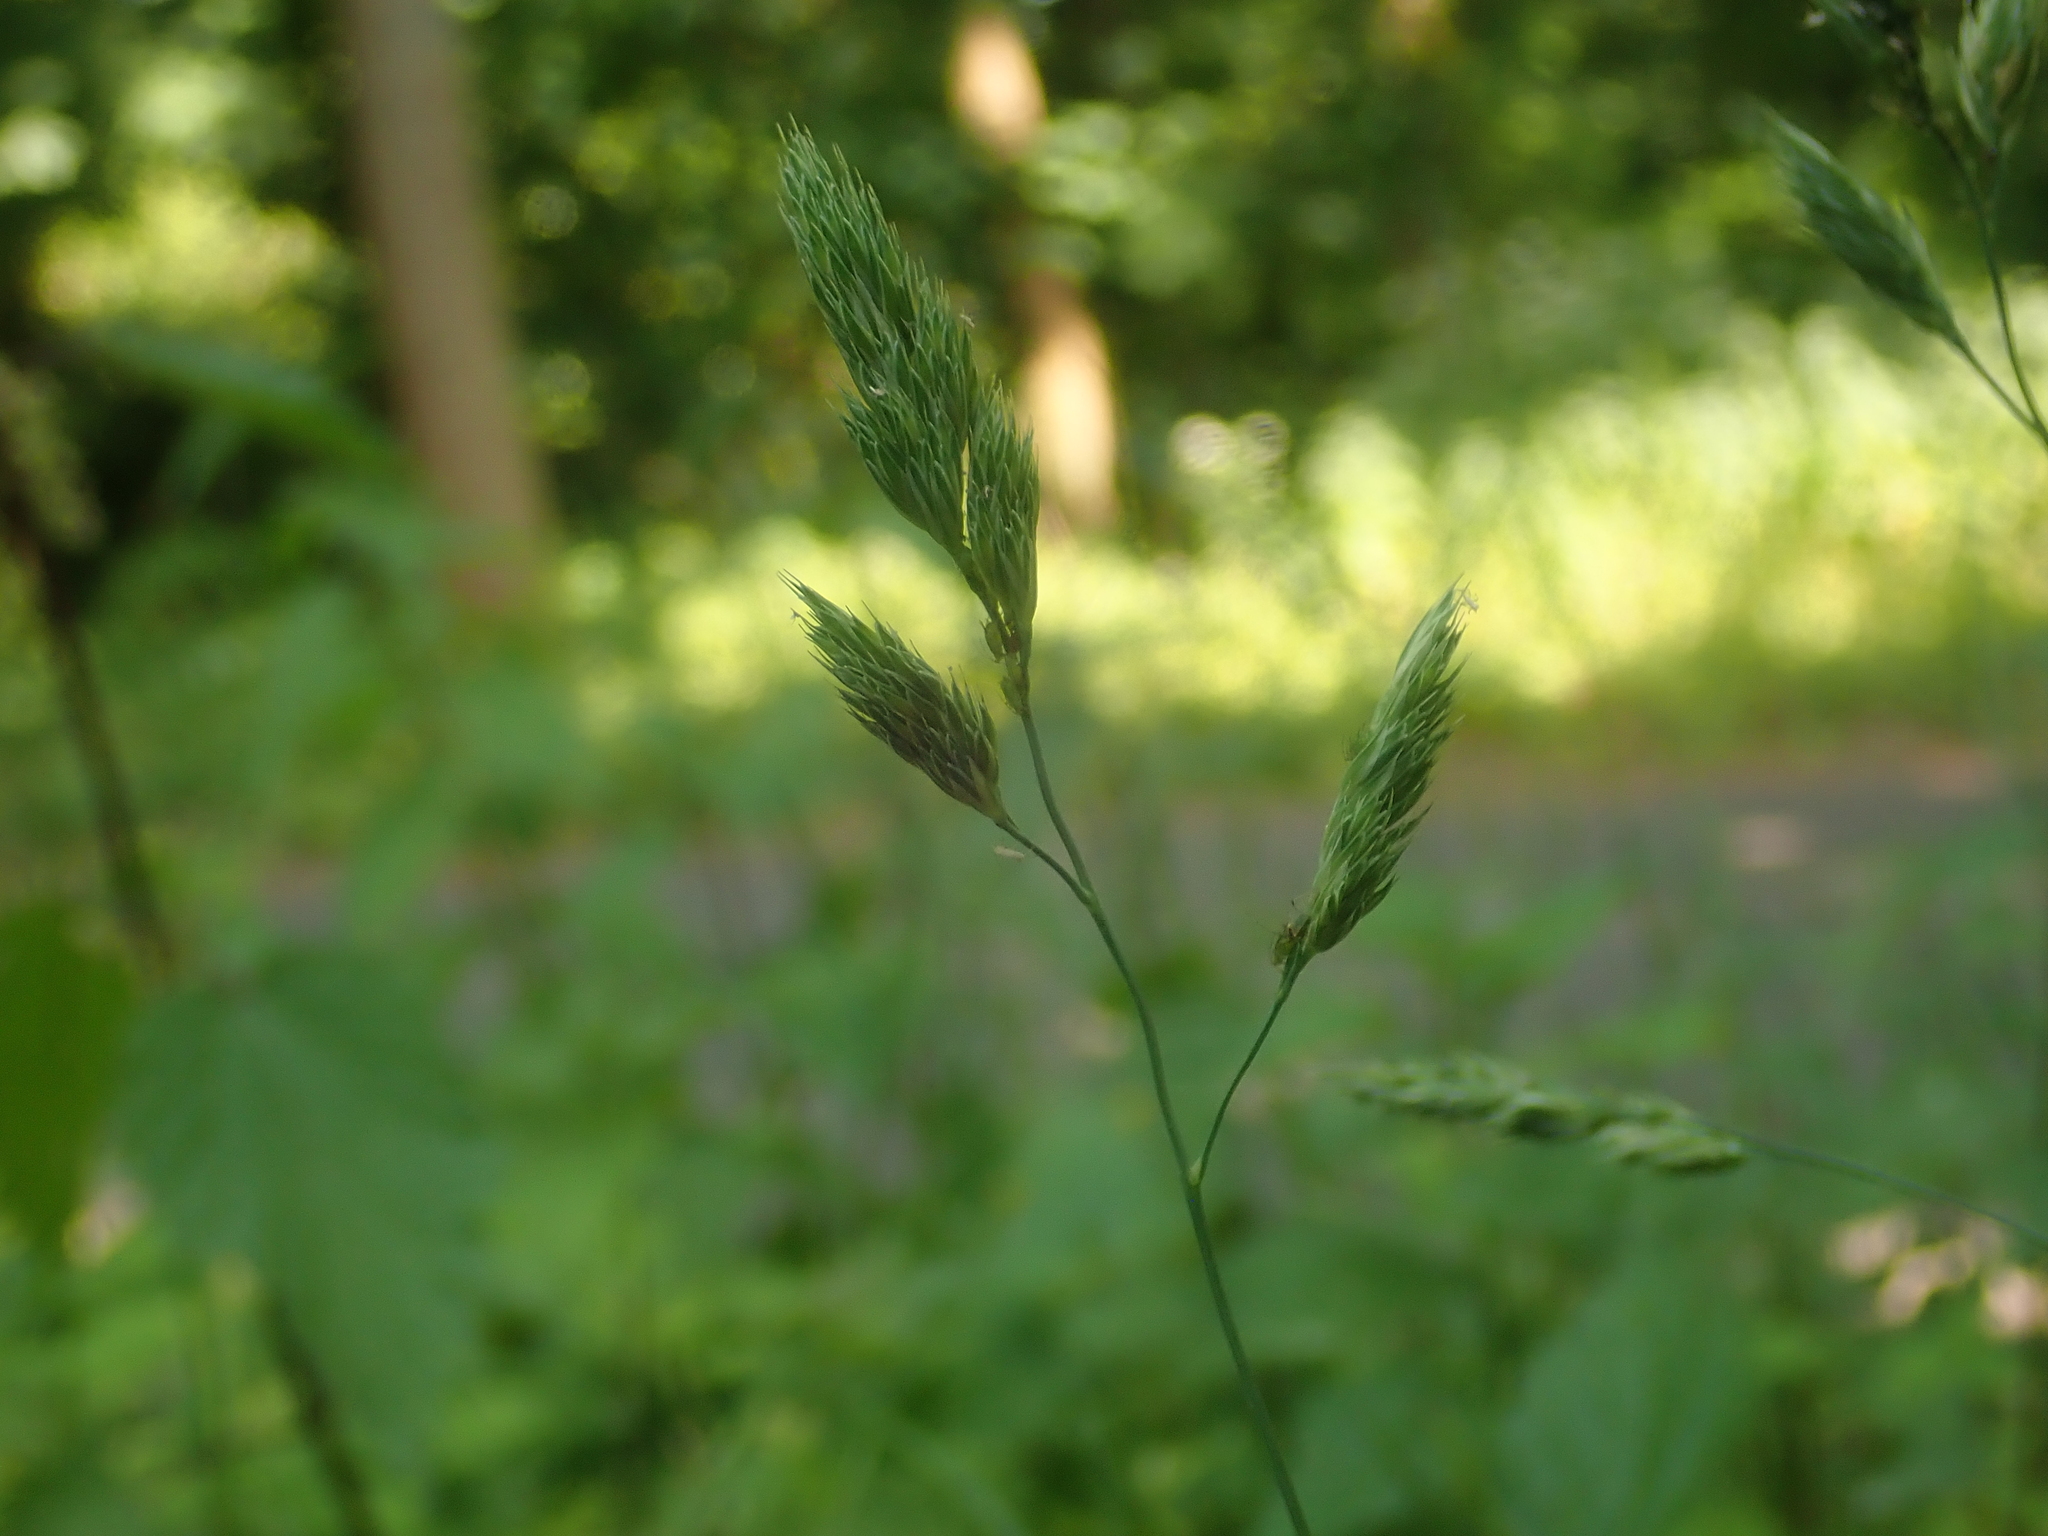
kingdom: Plantae
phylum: Tracheophyta
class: Liliopsida
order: Poales
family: Poaceae
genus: Dactylis
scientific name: Dactylis glomerata
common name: Orchardgrass
